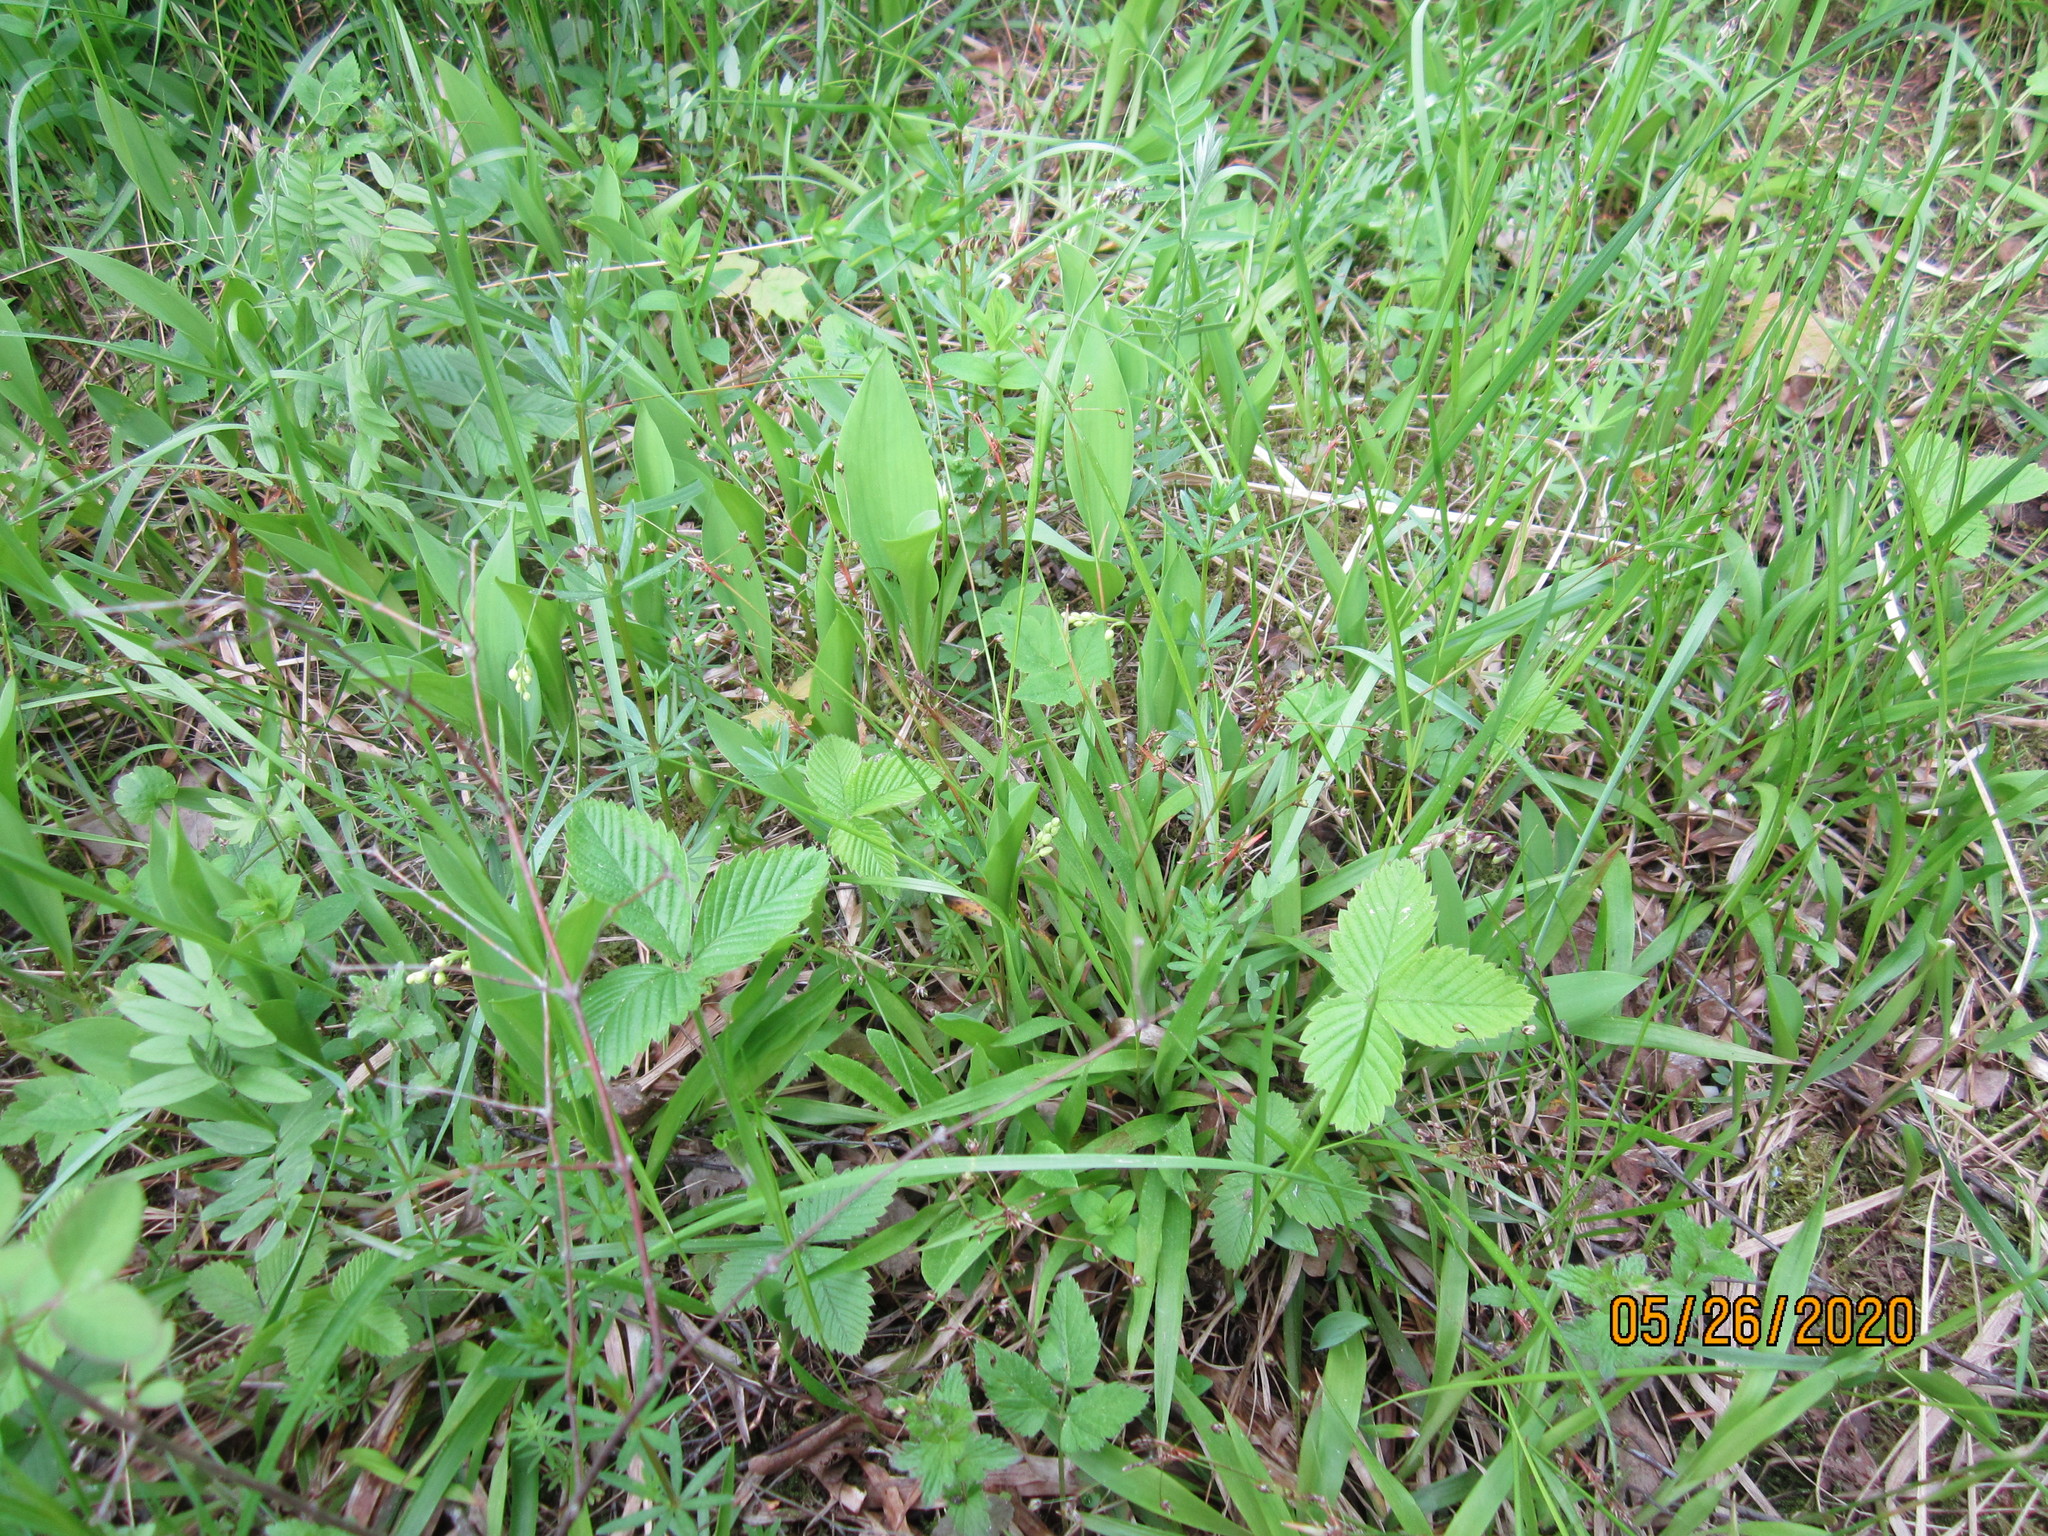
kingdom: Plantae
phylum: Tracheophyta
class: Liliopsida
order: Poales
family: Juncaceae
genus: Luzula
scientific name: Luzula pilosa
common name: Hairy wood-rush
